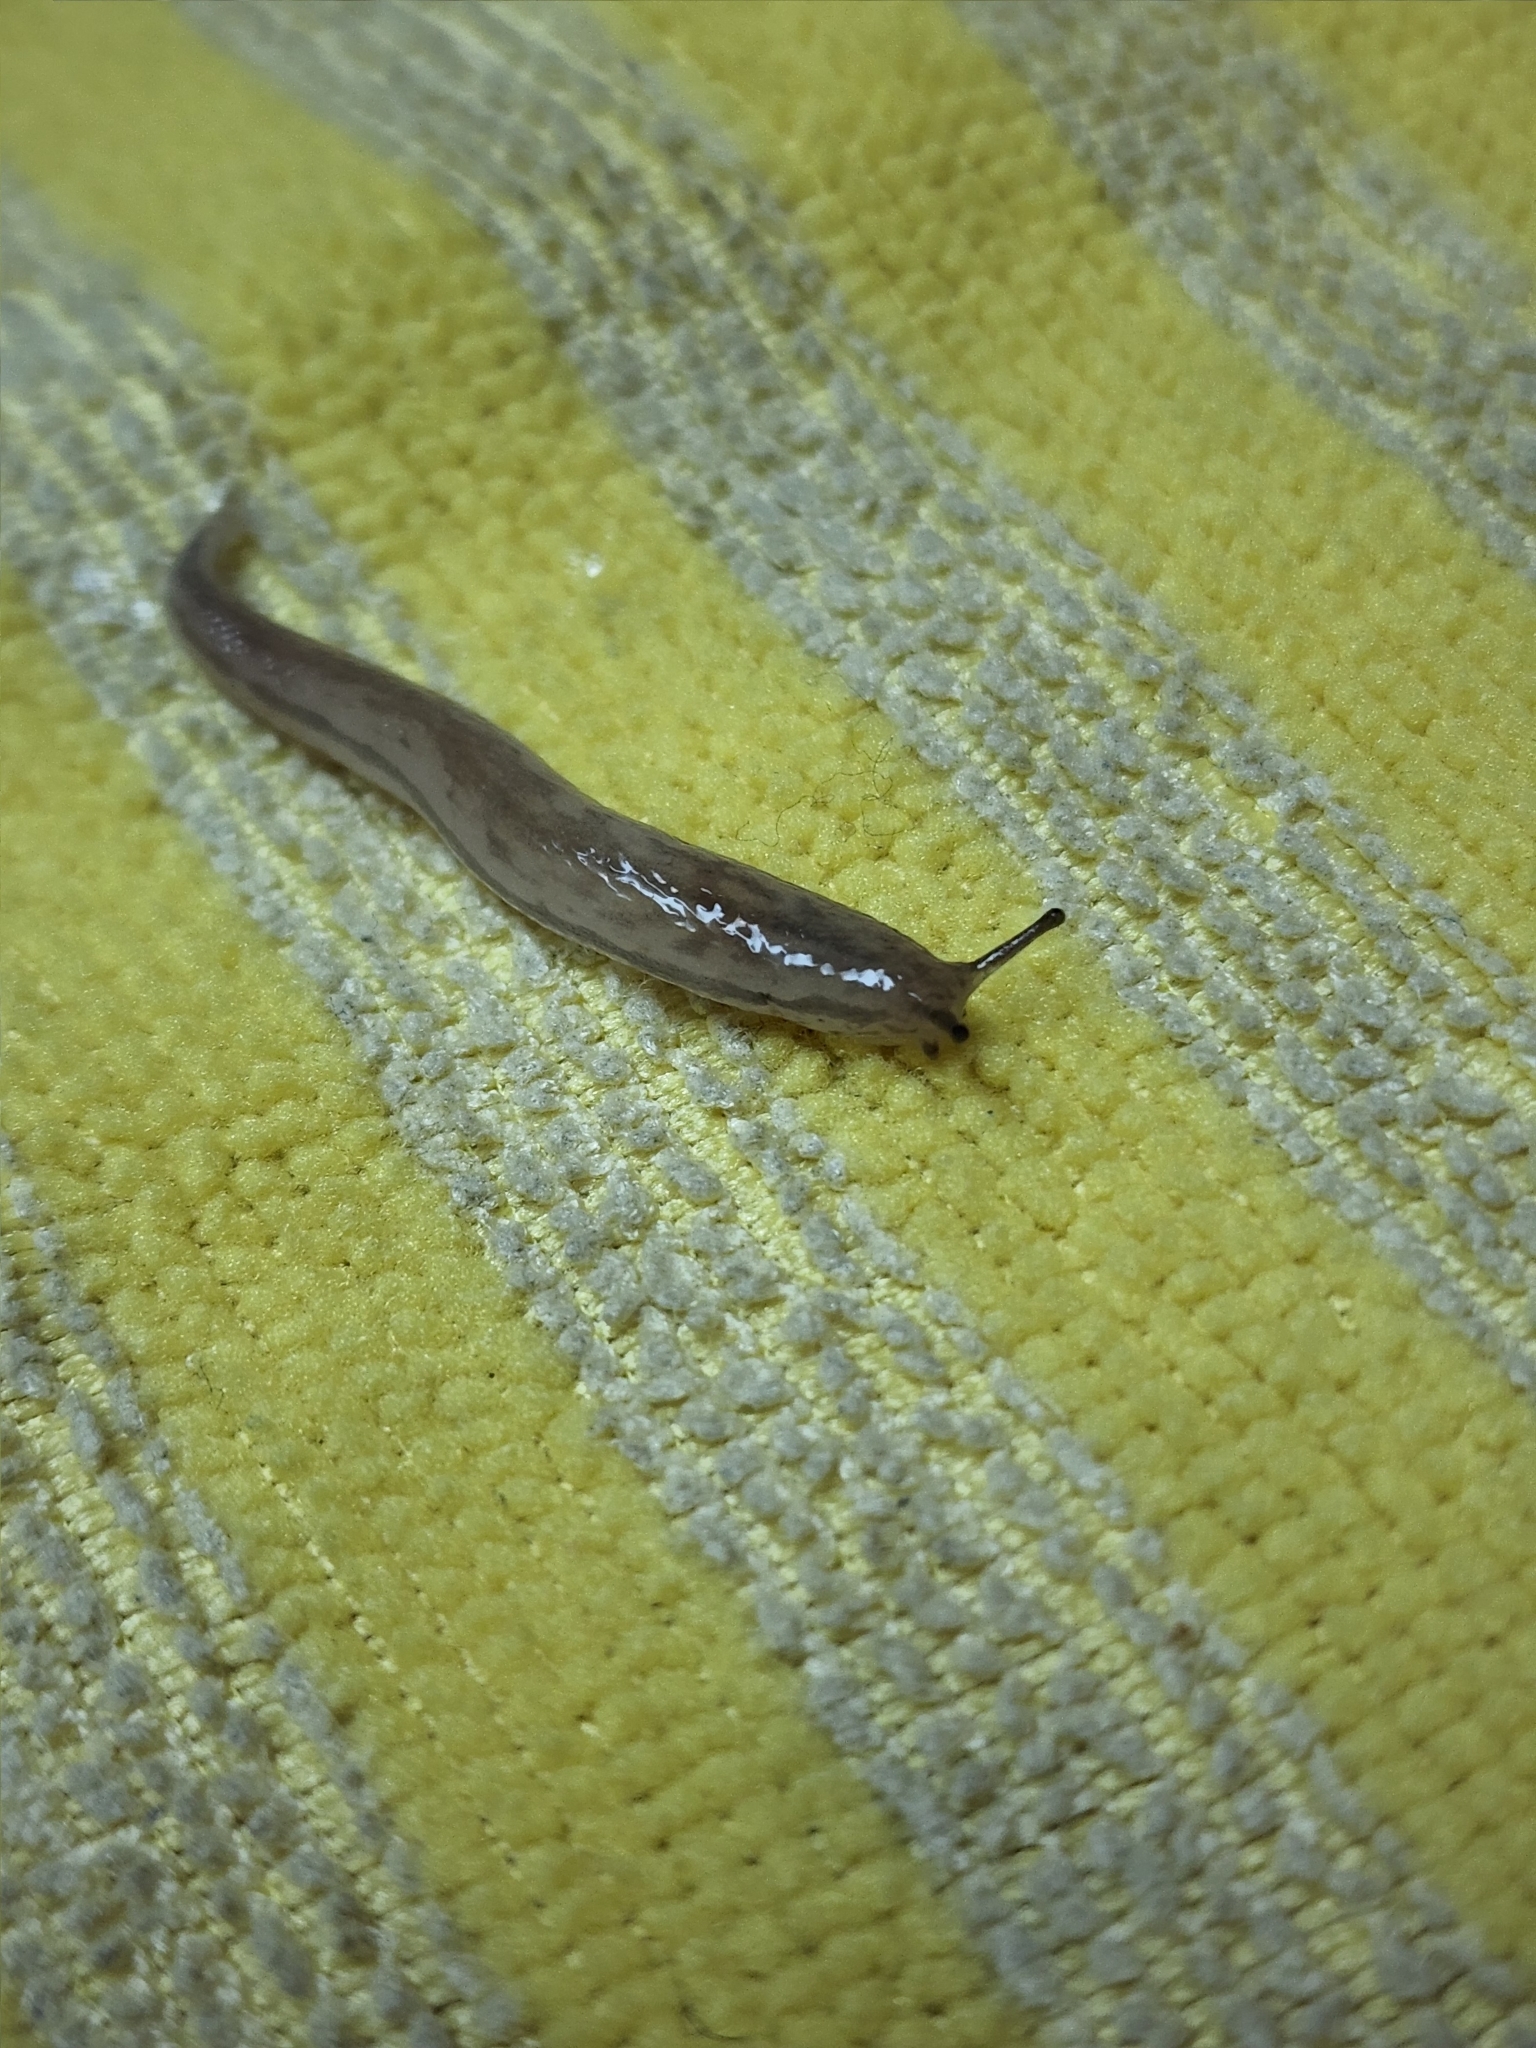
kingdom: Animalia
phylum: Mollusca
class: Gastropoda
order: Stylommatophora
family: Philomycidae
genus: Meghimatium
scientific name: Meghimatium bilineatum
